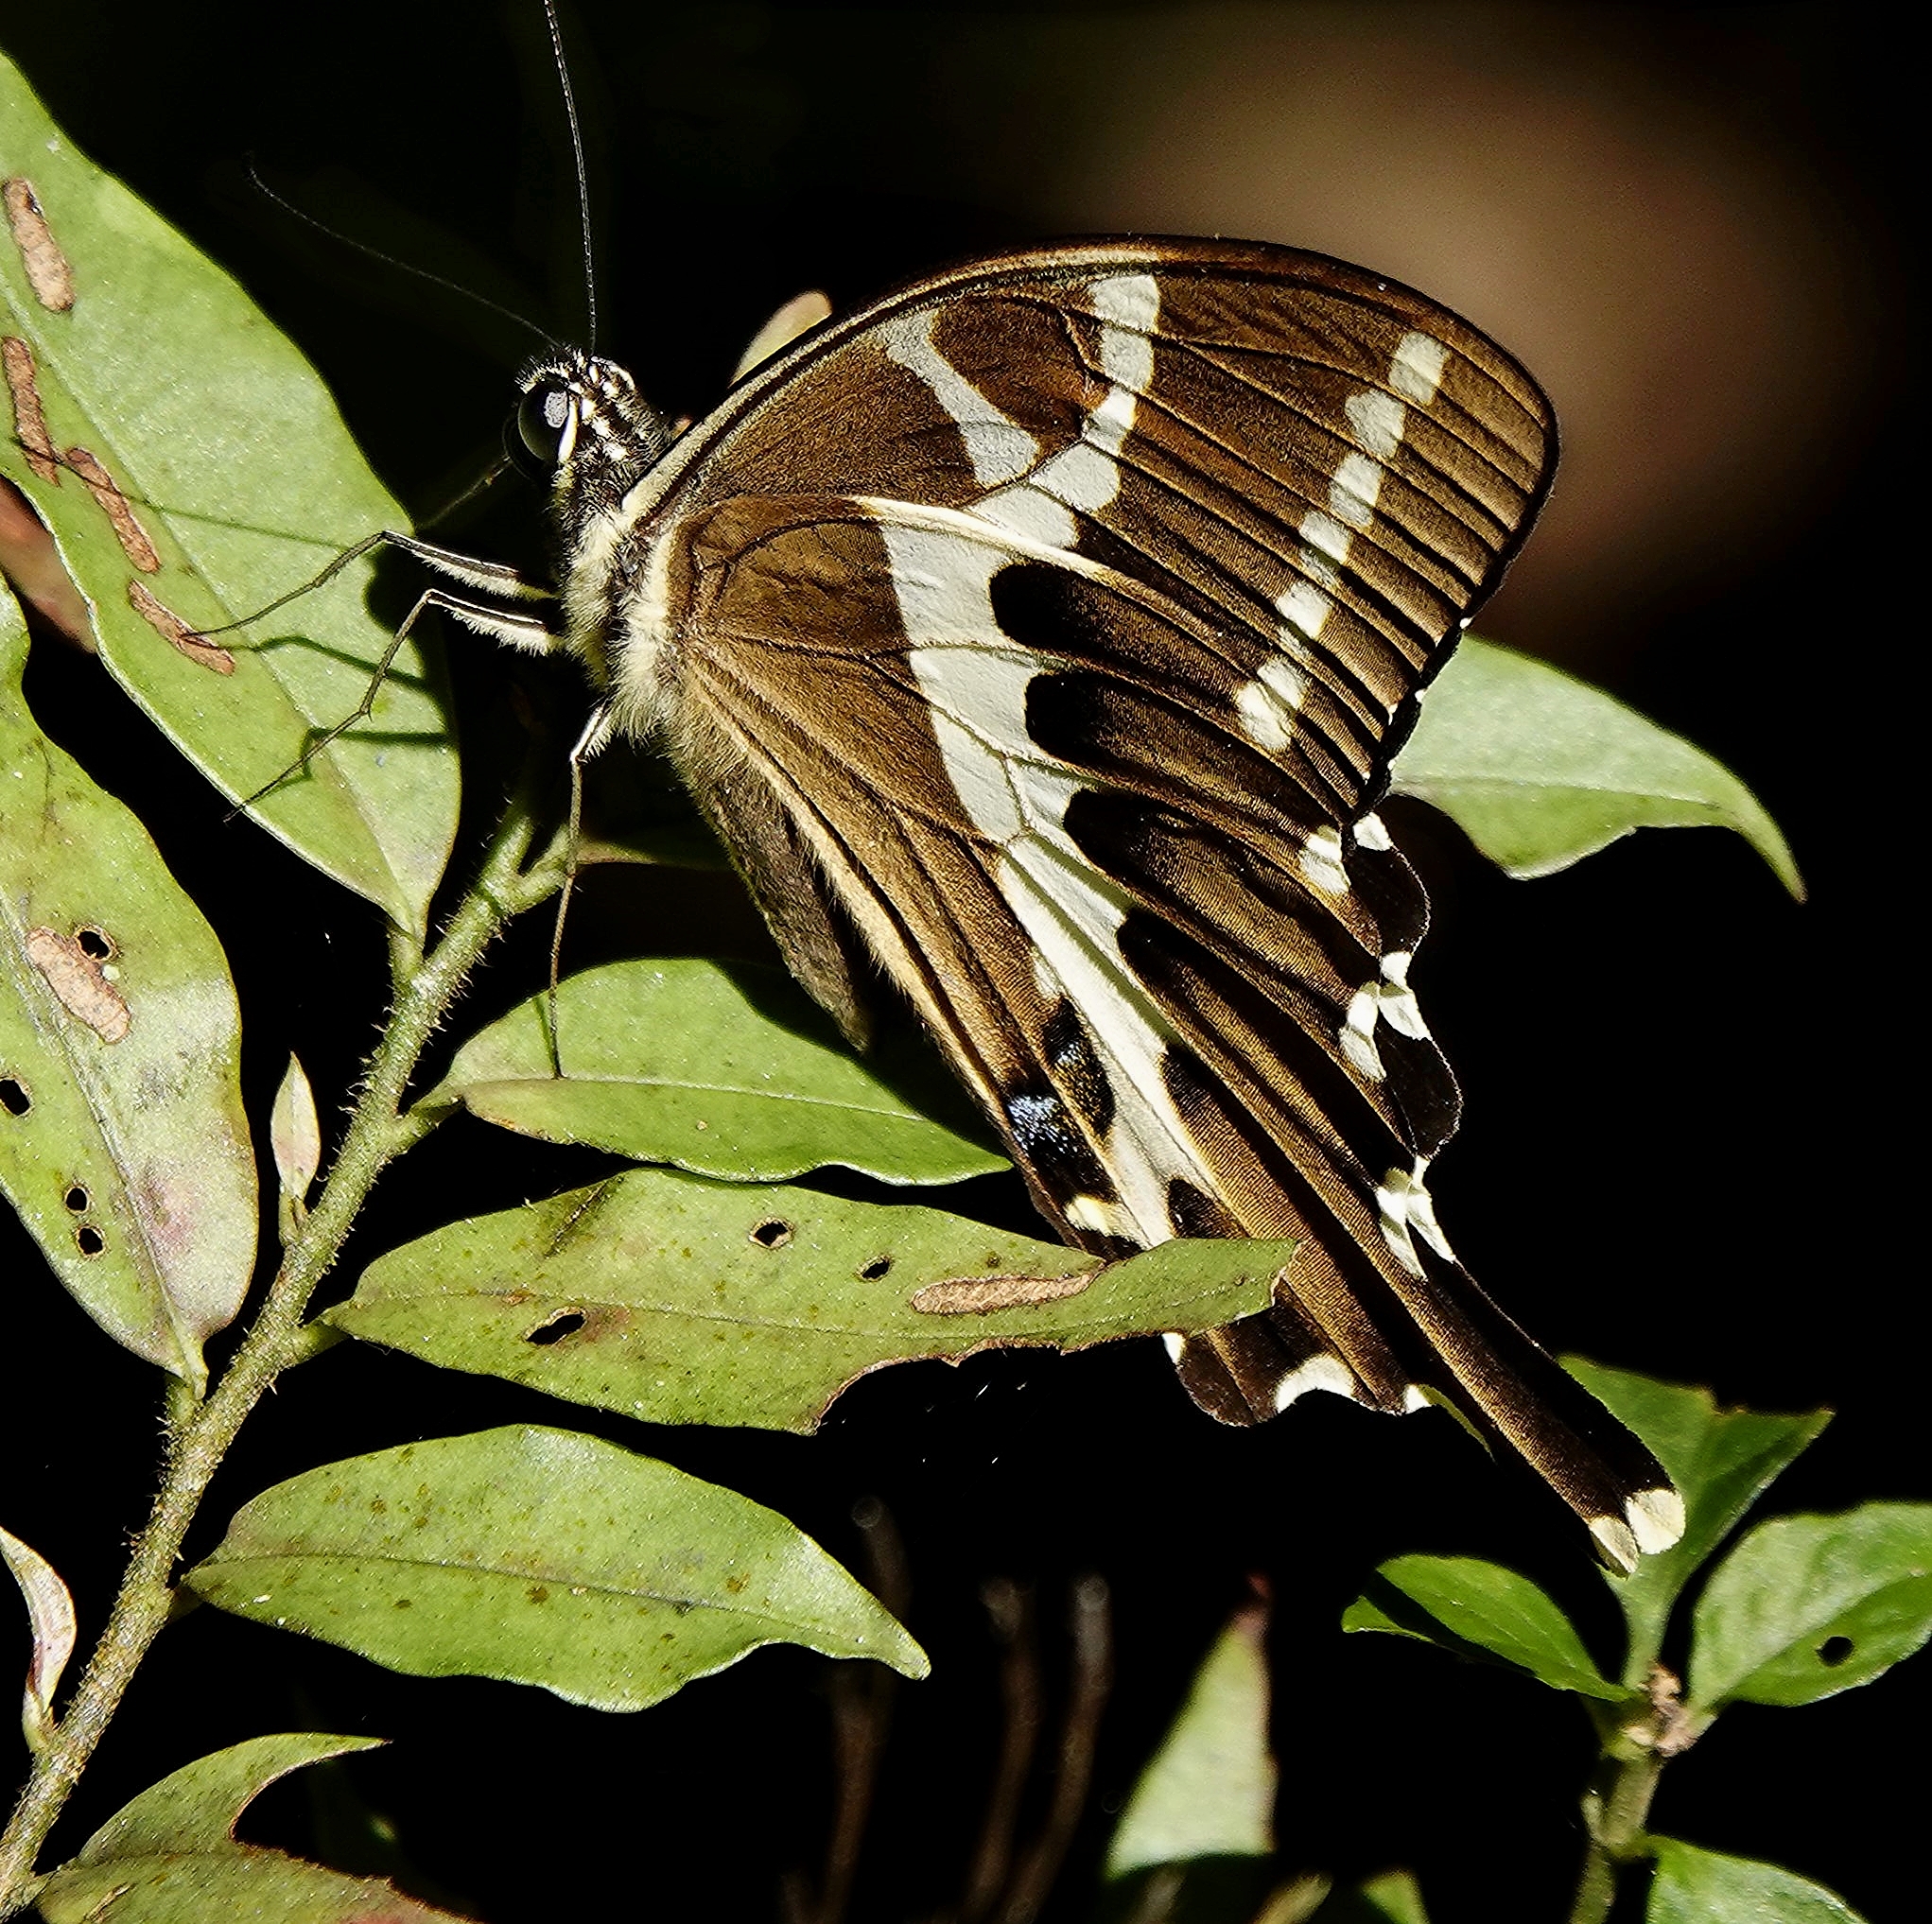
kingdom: Animalia
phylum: Arthropoda
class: Insecta
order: Lepidoptera
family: Papilionidae
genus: Papilio
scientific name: Papilio delalandei
